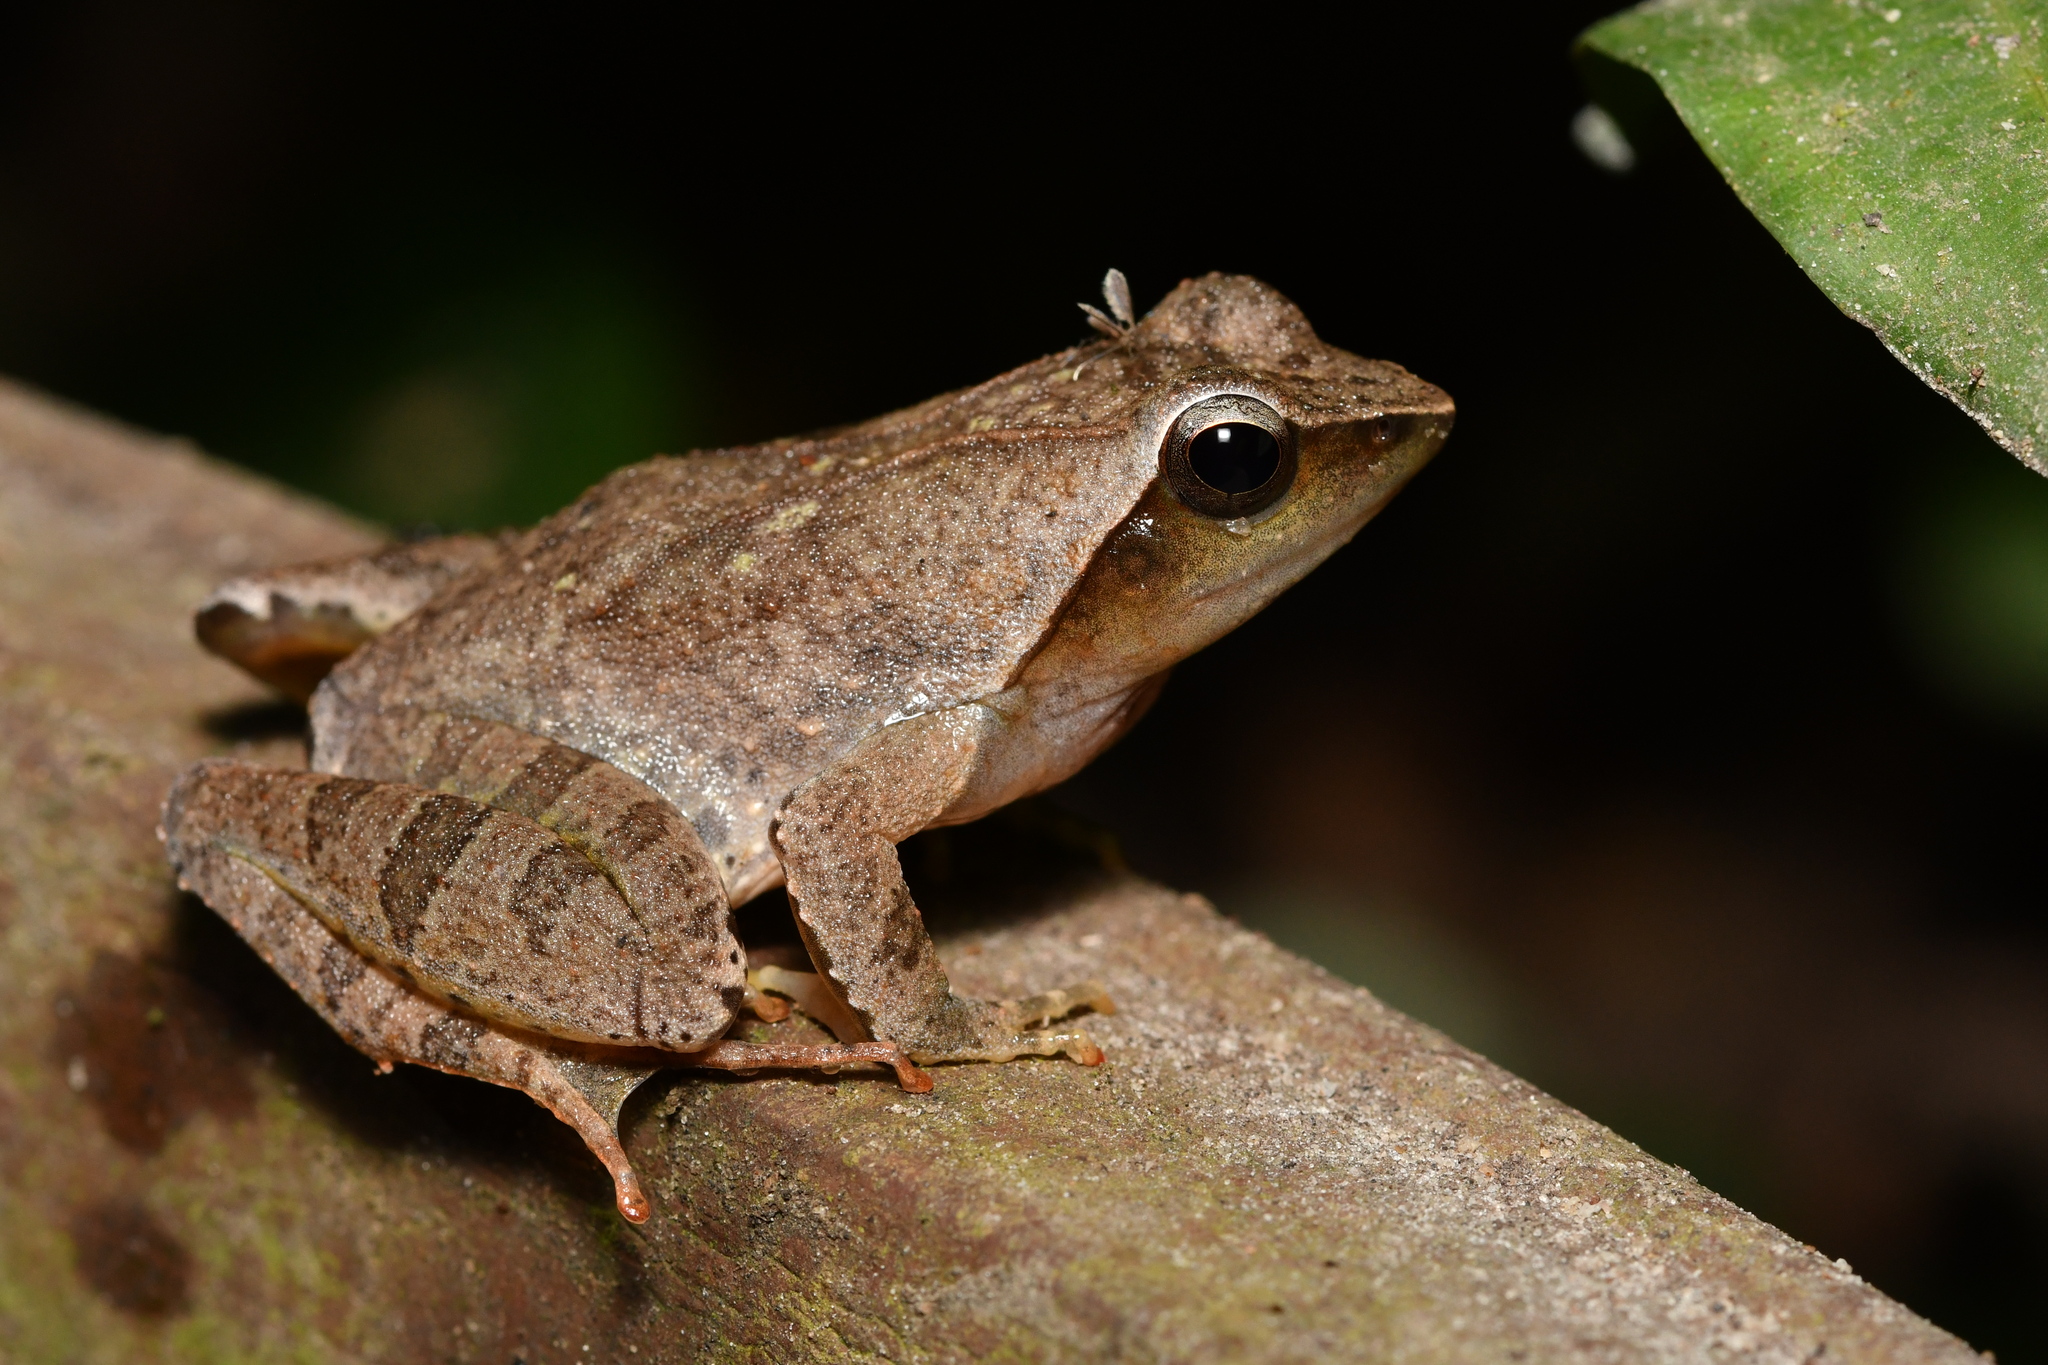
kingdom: Animalia
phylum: Chordata
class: Amphibia
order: Anura
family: Phrynobatrachidae
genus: Phrynobatrachus
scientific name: Phrynobatrachus plicatus
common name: Coast river frog
